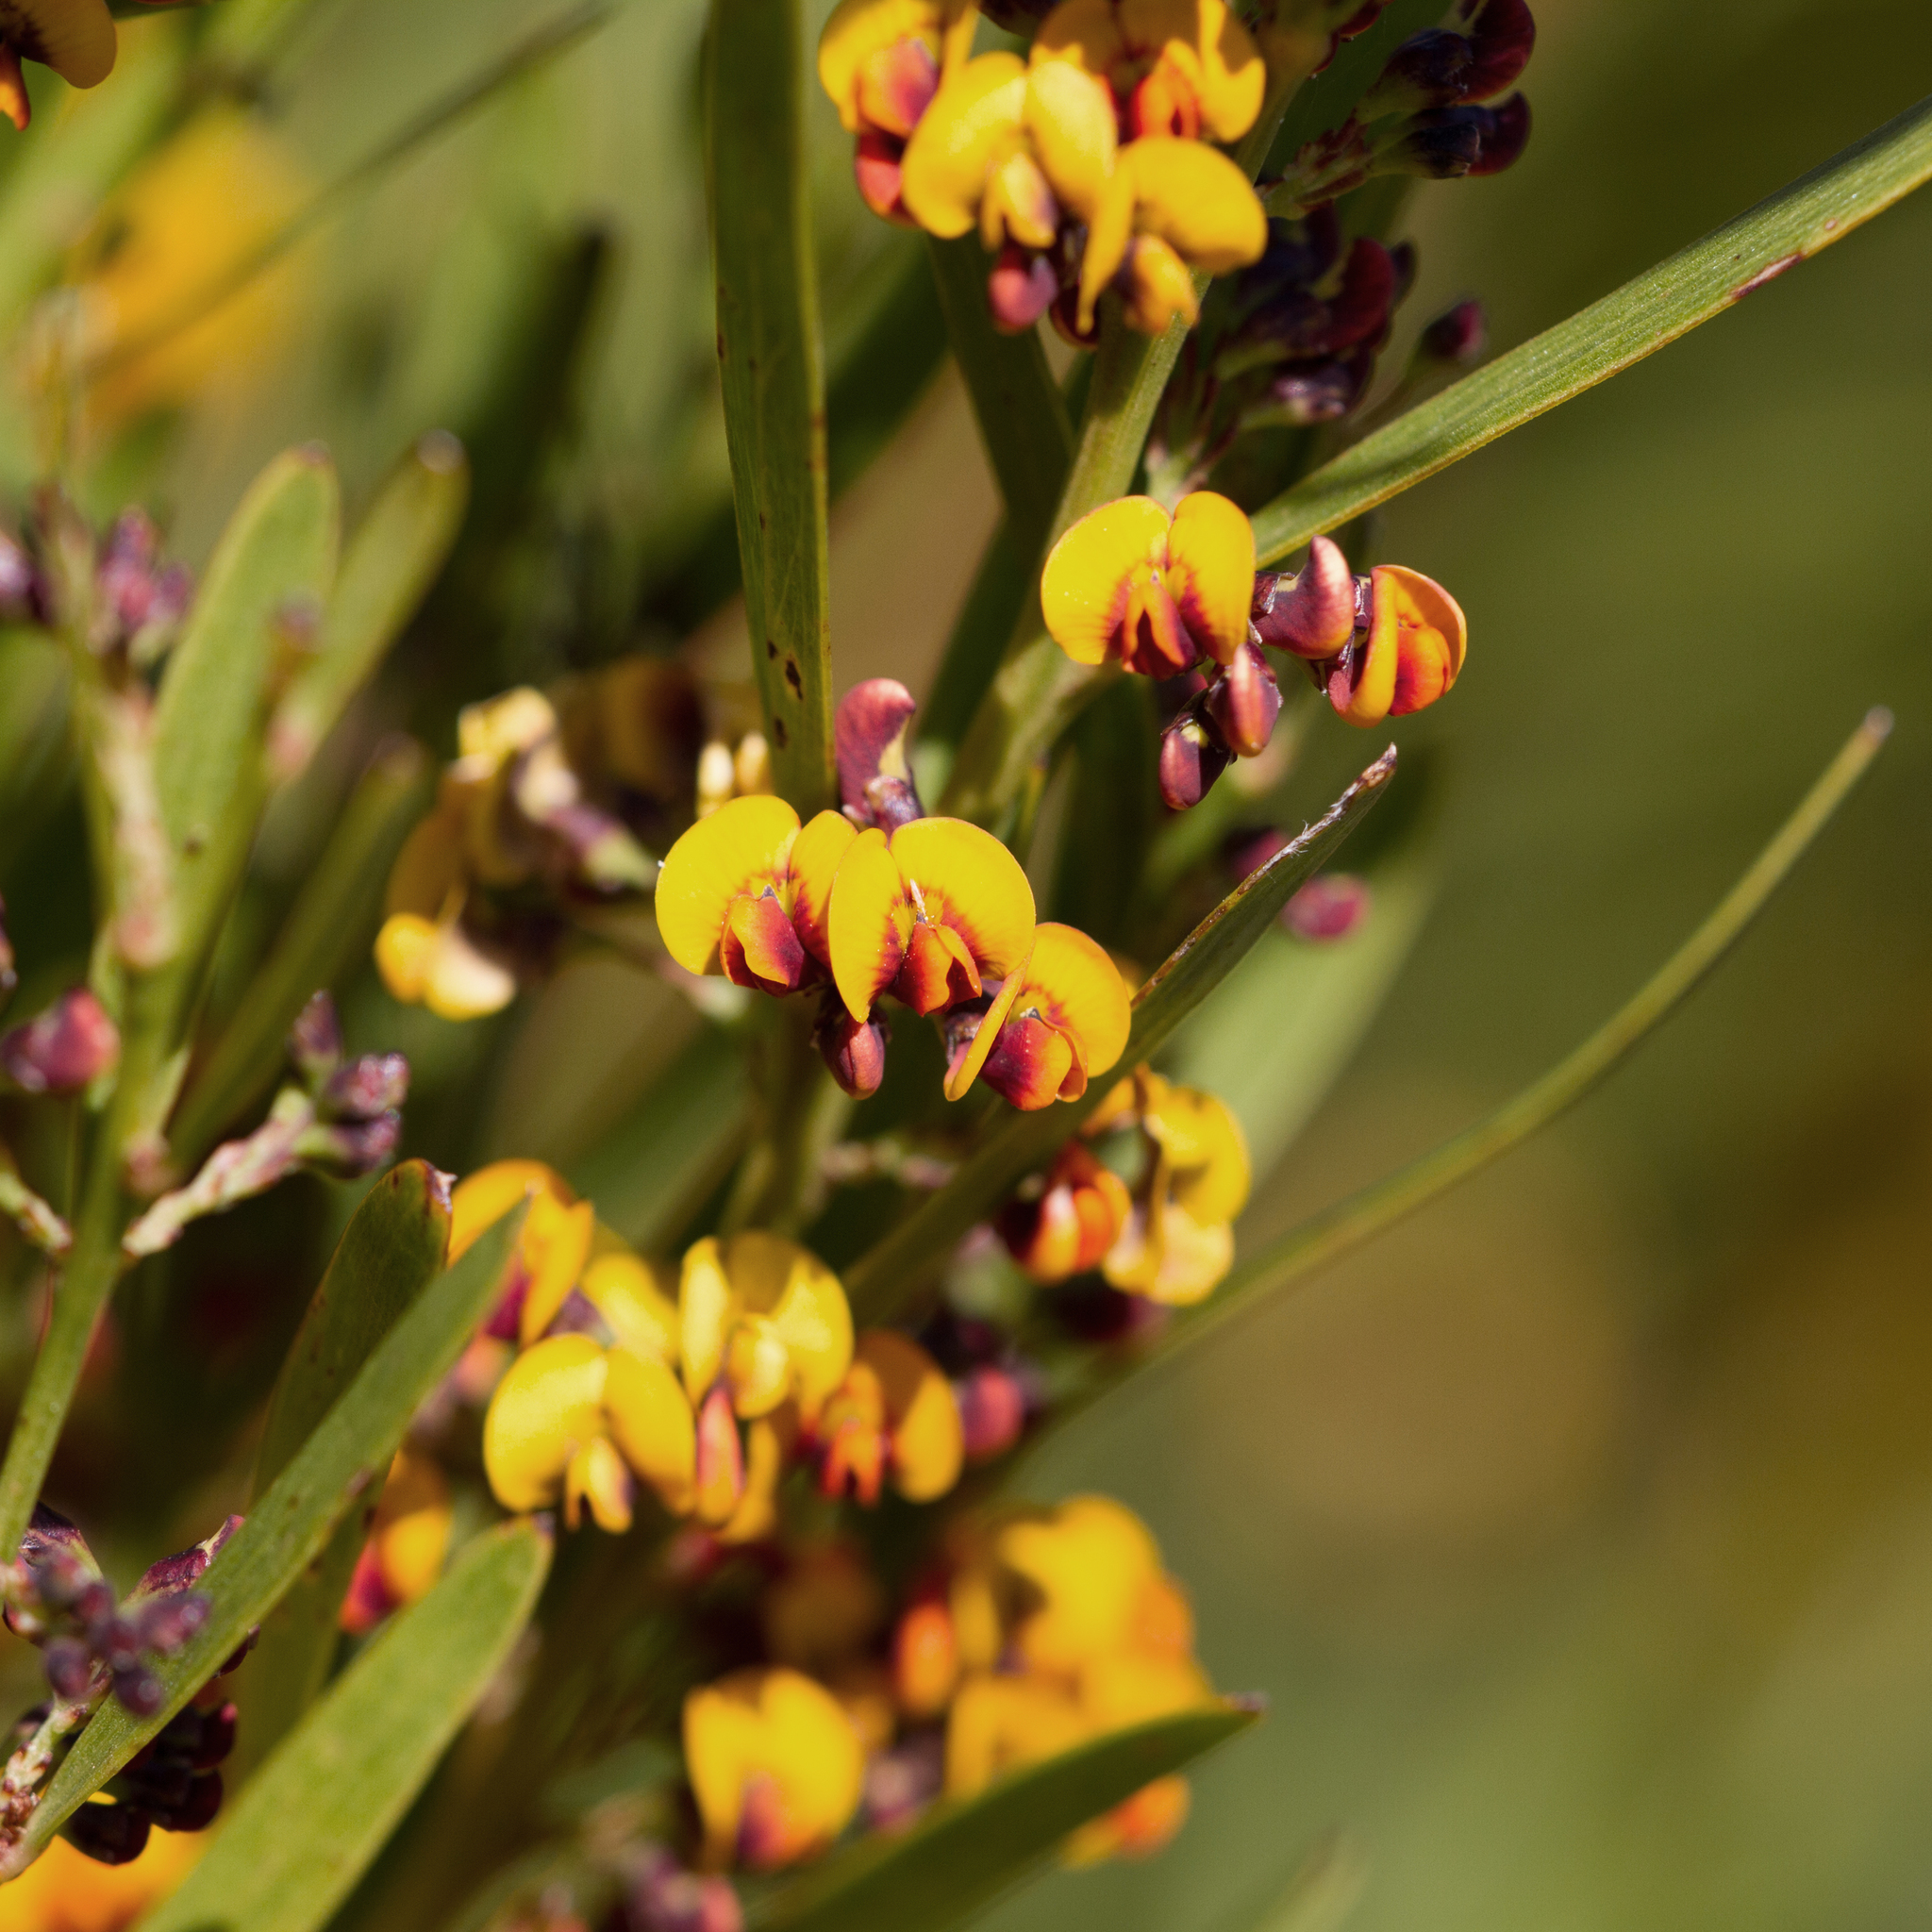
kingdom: Plantae
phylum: Tracheophyta
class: Magnoliopsida
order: Fabales
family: Fabaceae
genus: Daviesia
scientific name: Daviesia leptophylla
